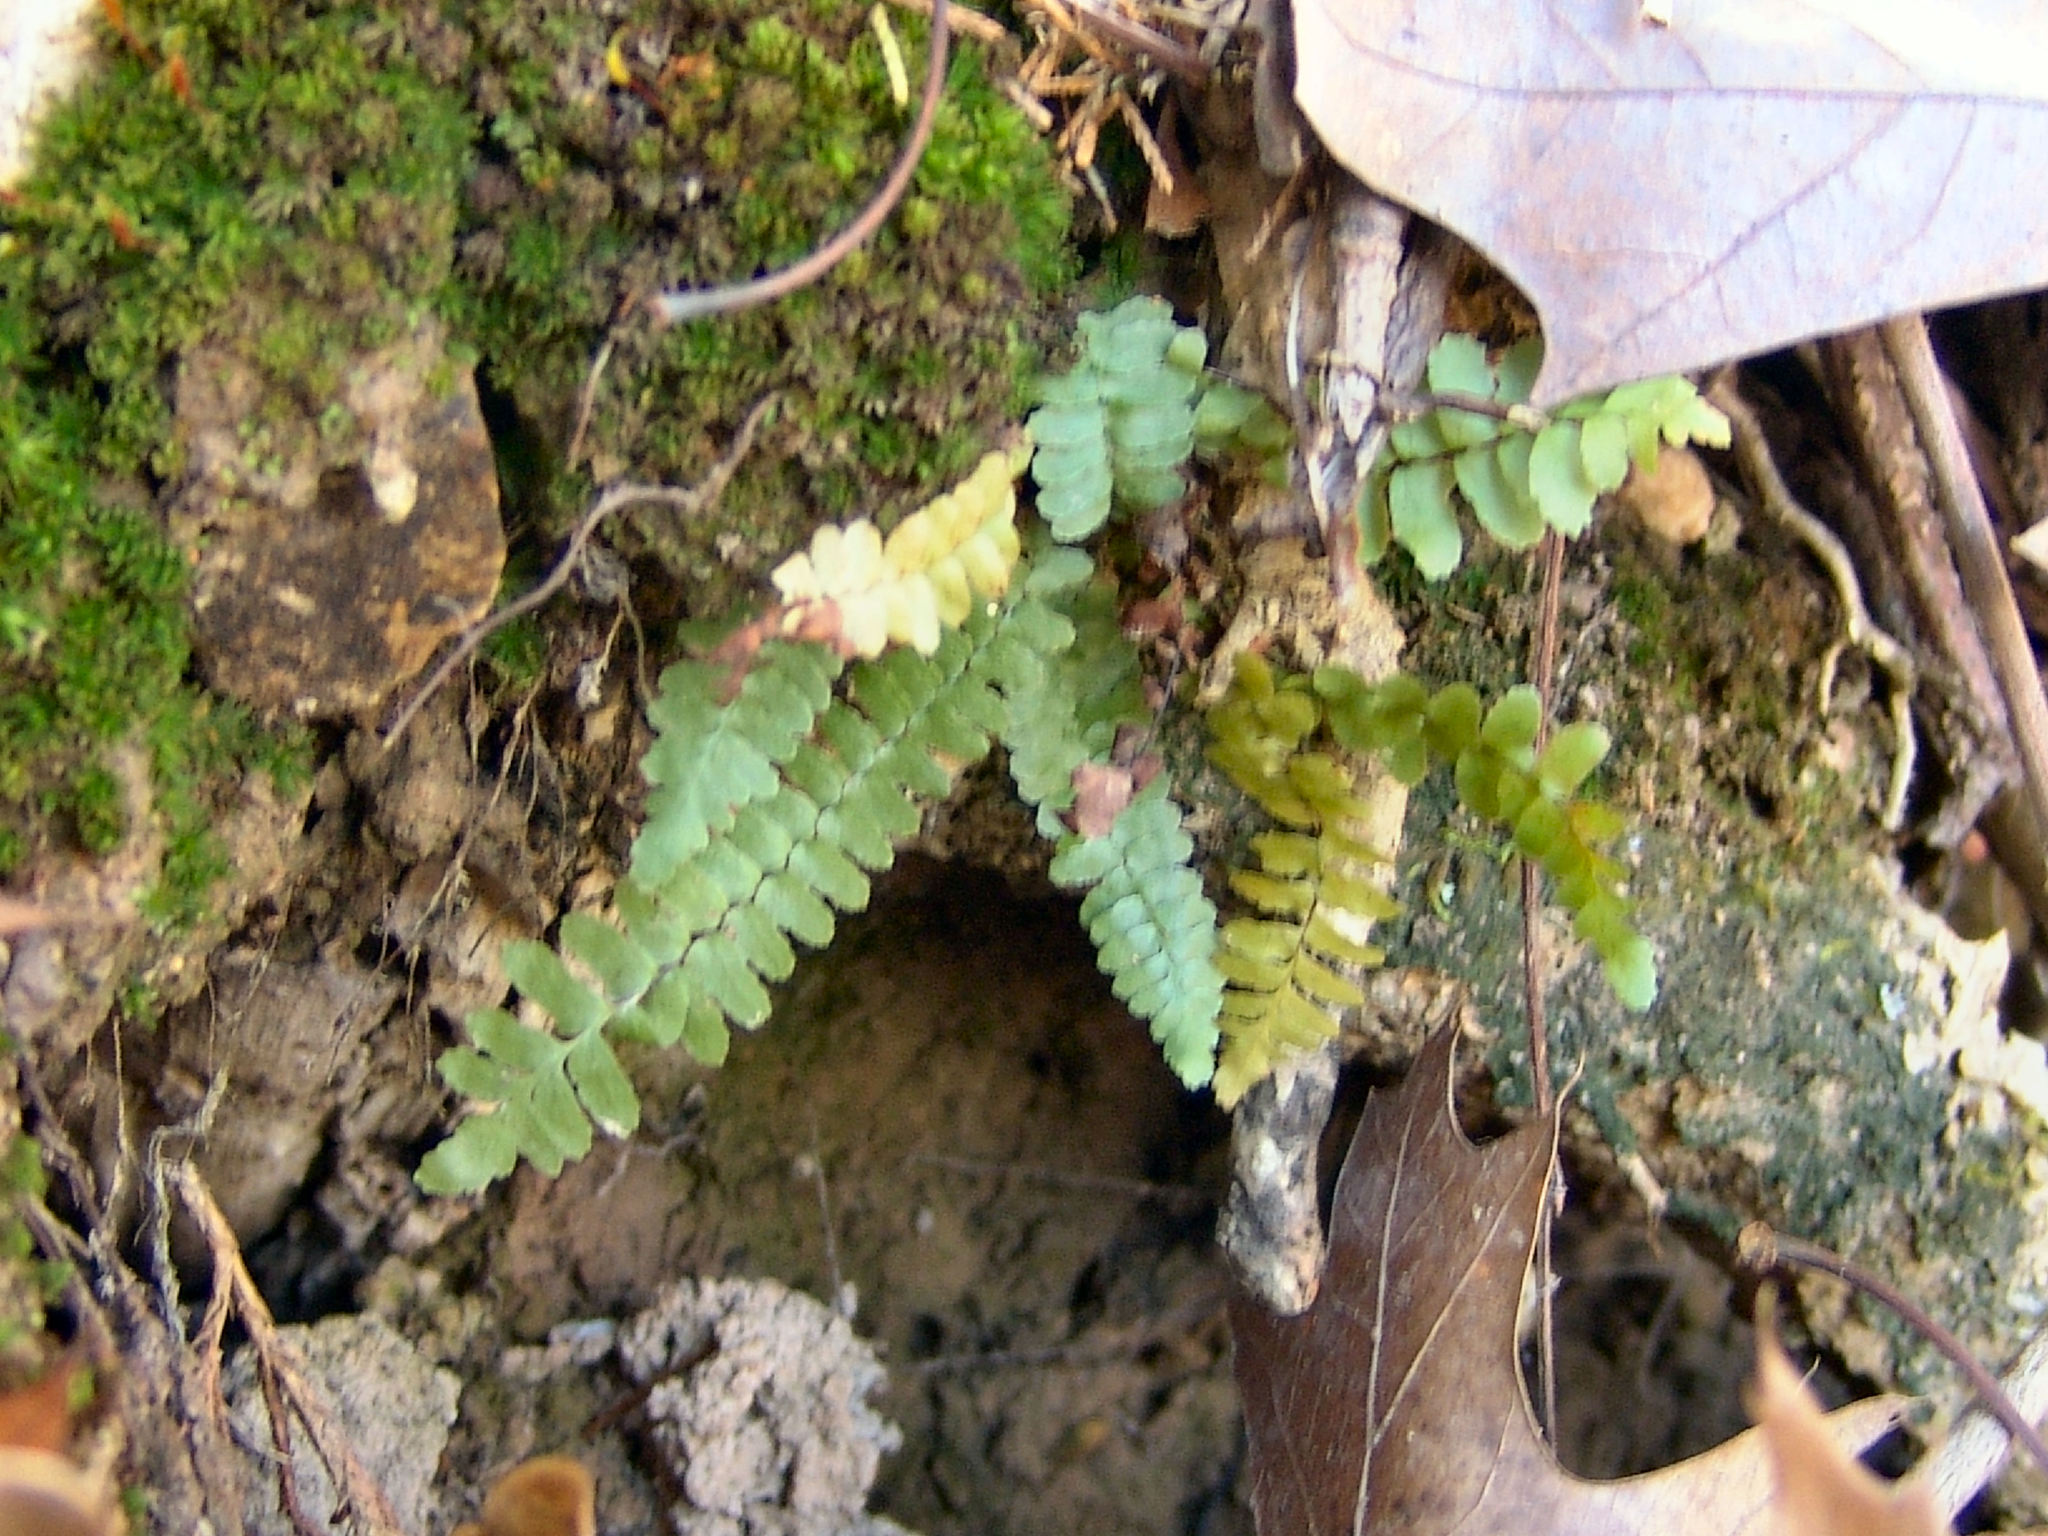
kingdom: Plantae
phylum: Tracheophyta
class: Polypodiopsida
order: Polypodiales
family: Aspleniaceae
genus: Asplenium
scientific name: Asplenium platyneuron
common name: Ebony spleenwort
